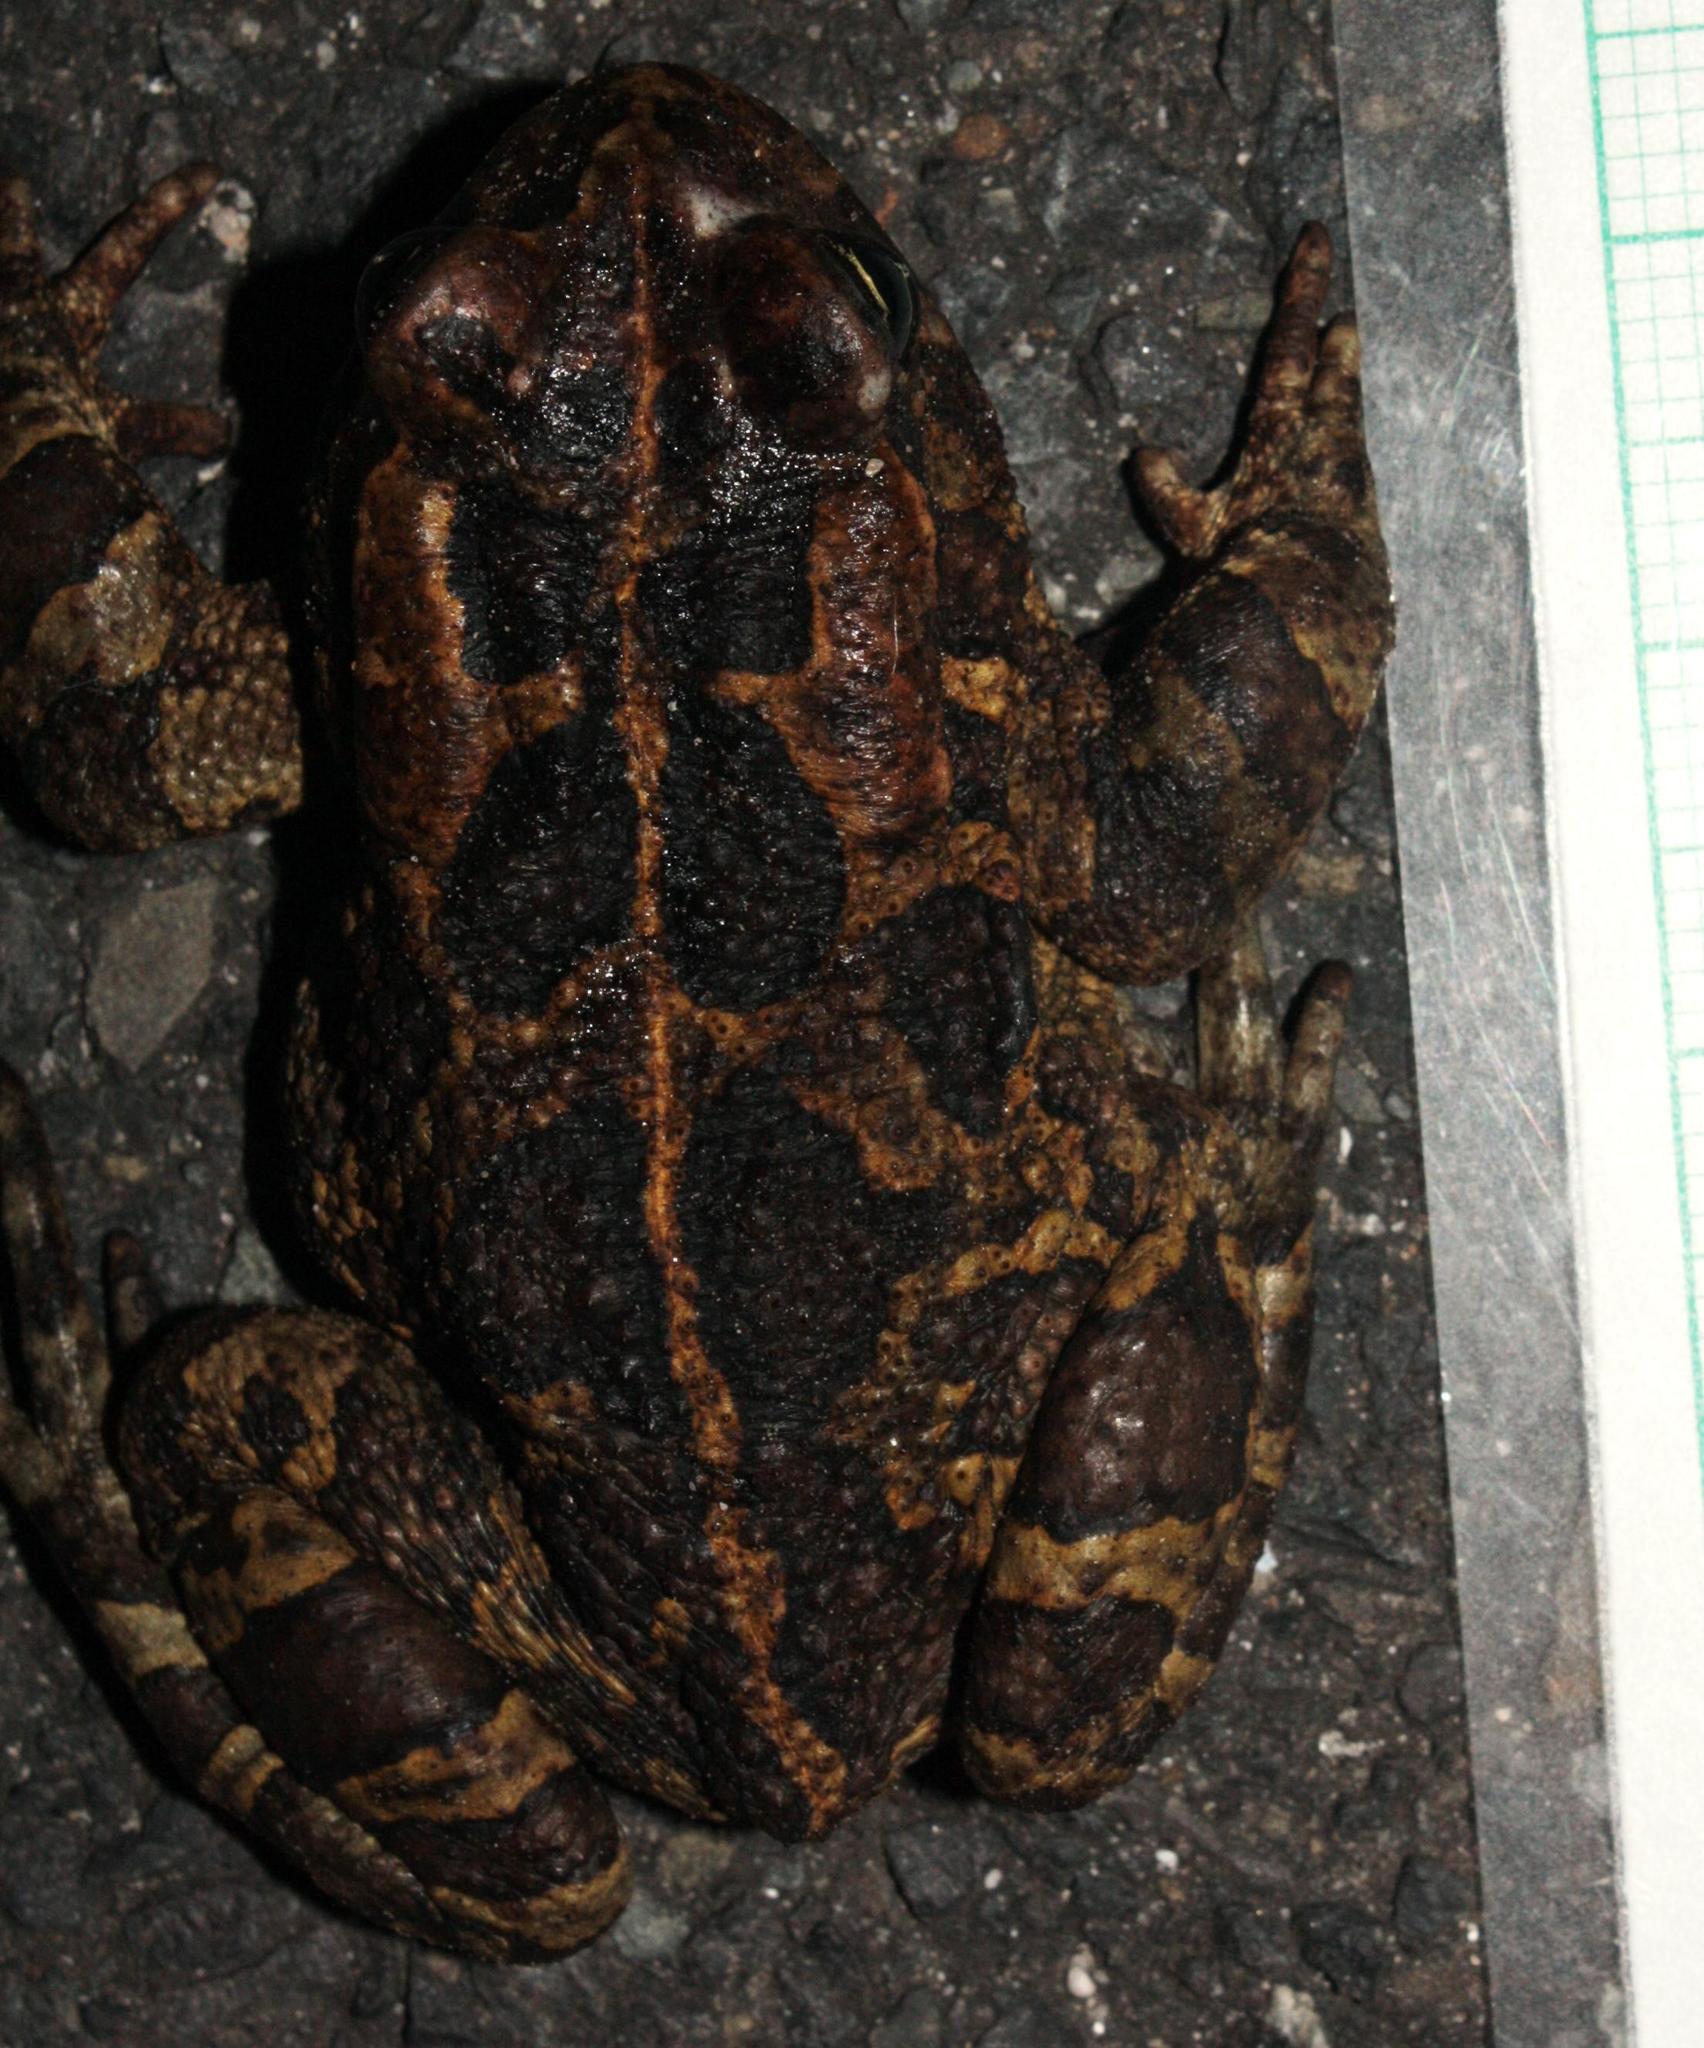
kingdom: Animalia
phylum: Chordata
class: Amphibia
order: Anura
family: Bufonidae
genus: Sclerophrys
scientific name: Sclerophrys pantherina
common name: Panther toad
